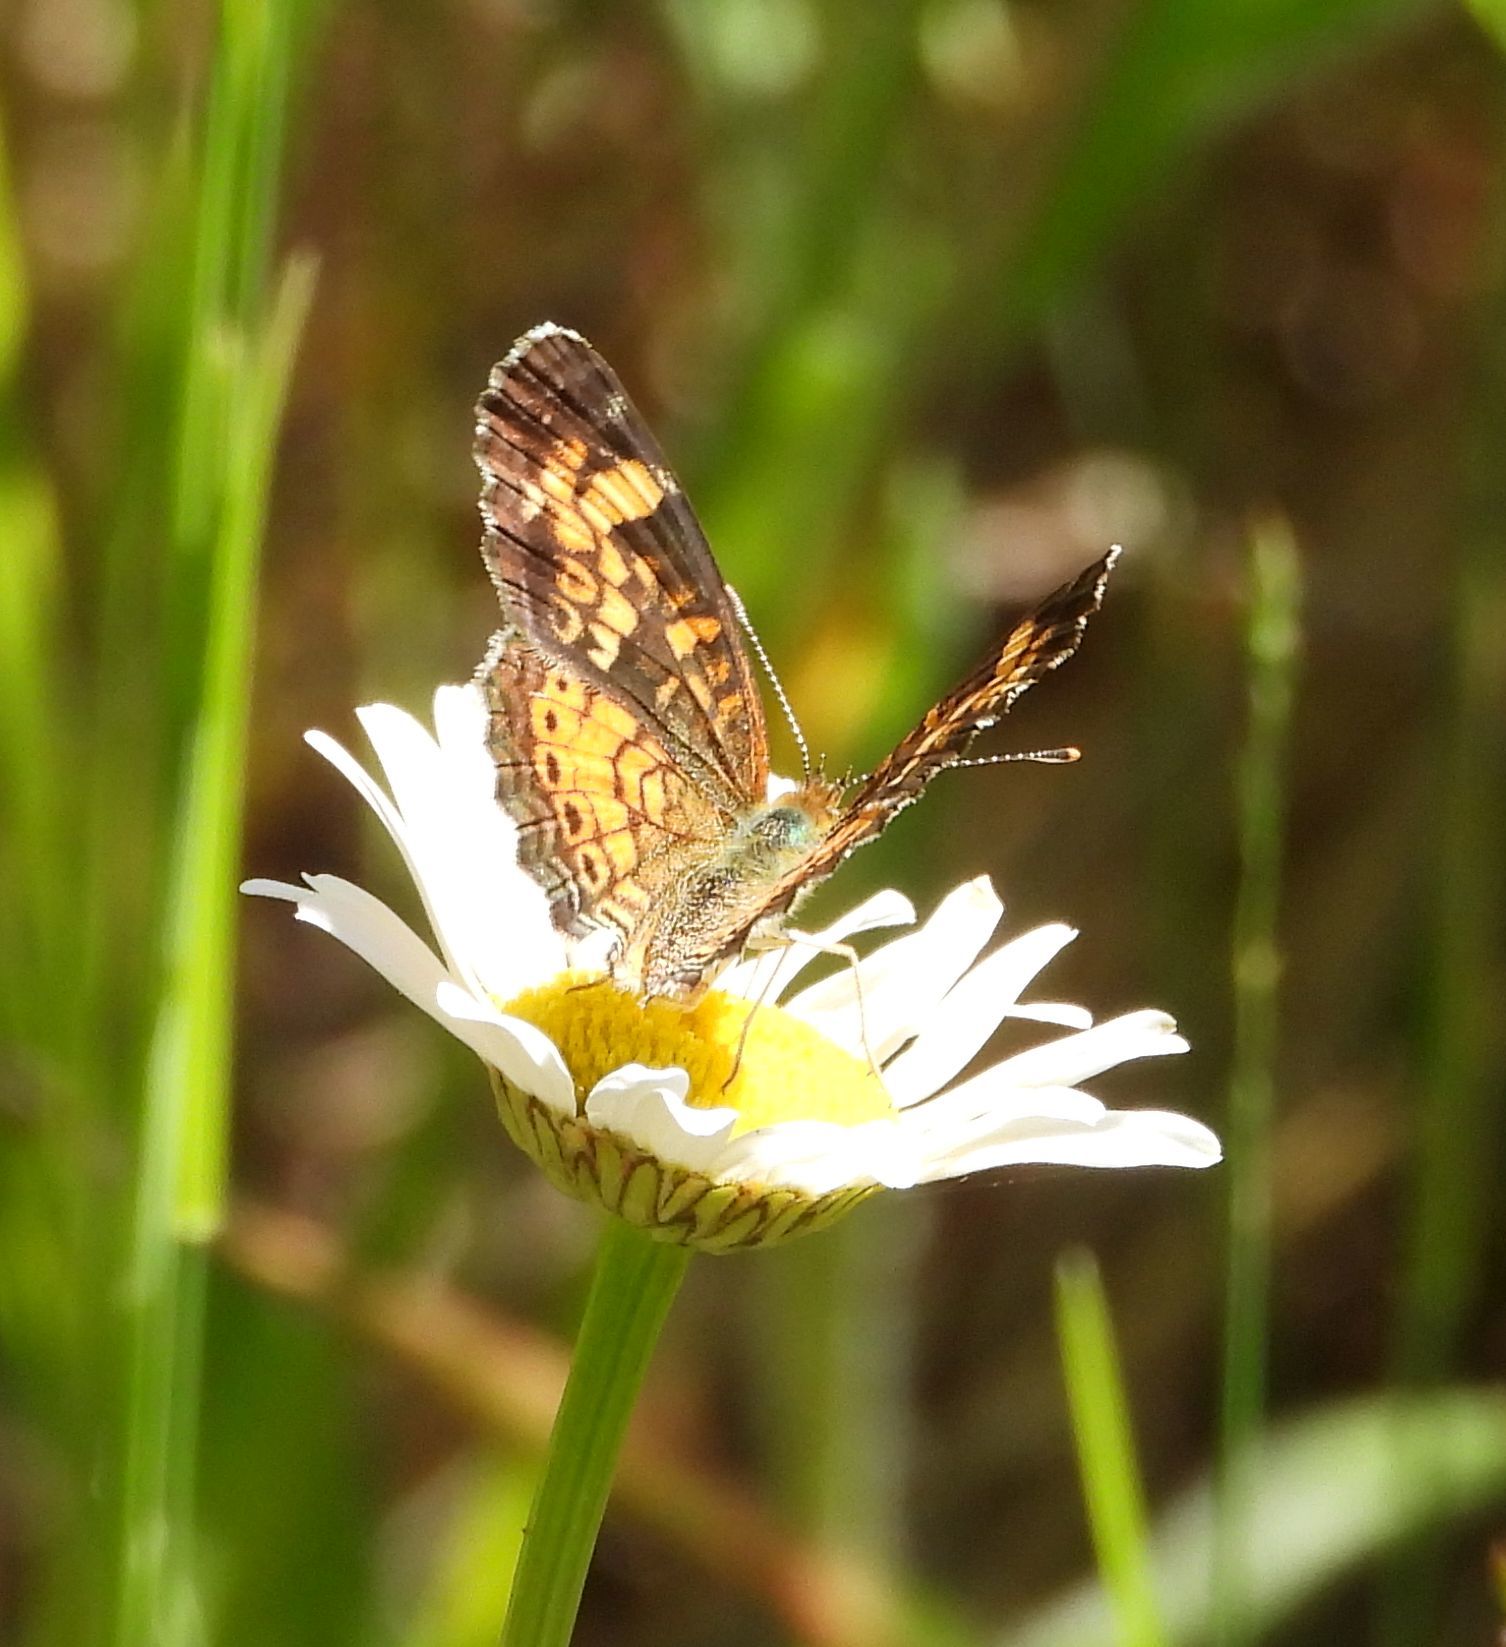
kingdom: Animalia
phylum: Arthropoda
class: Insecta
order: Lepidoptera
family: Nymphalidae
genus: Phyciodes
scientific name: Phyciodes tharos
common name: Pearl crescent
